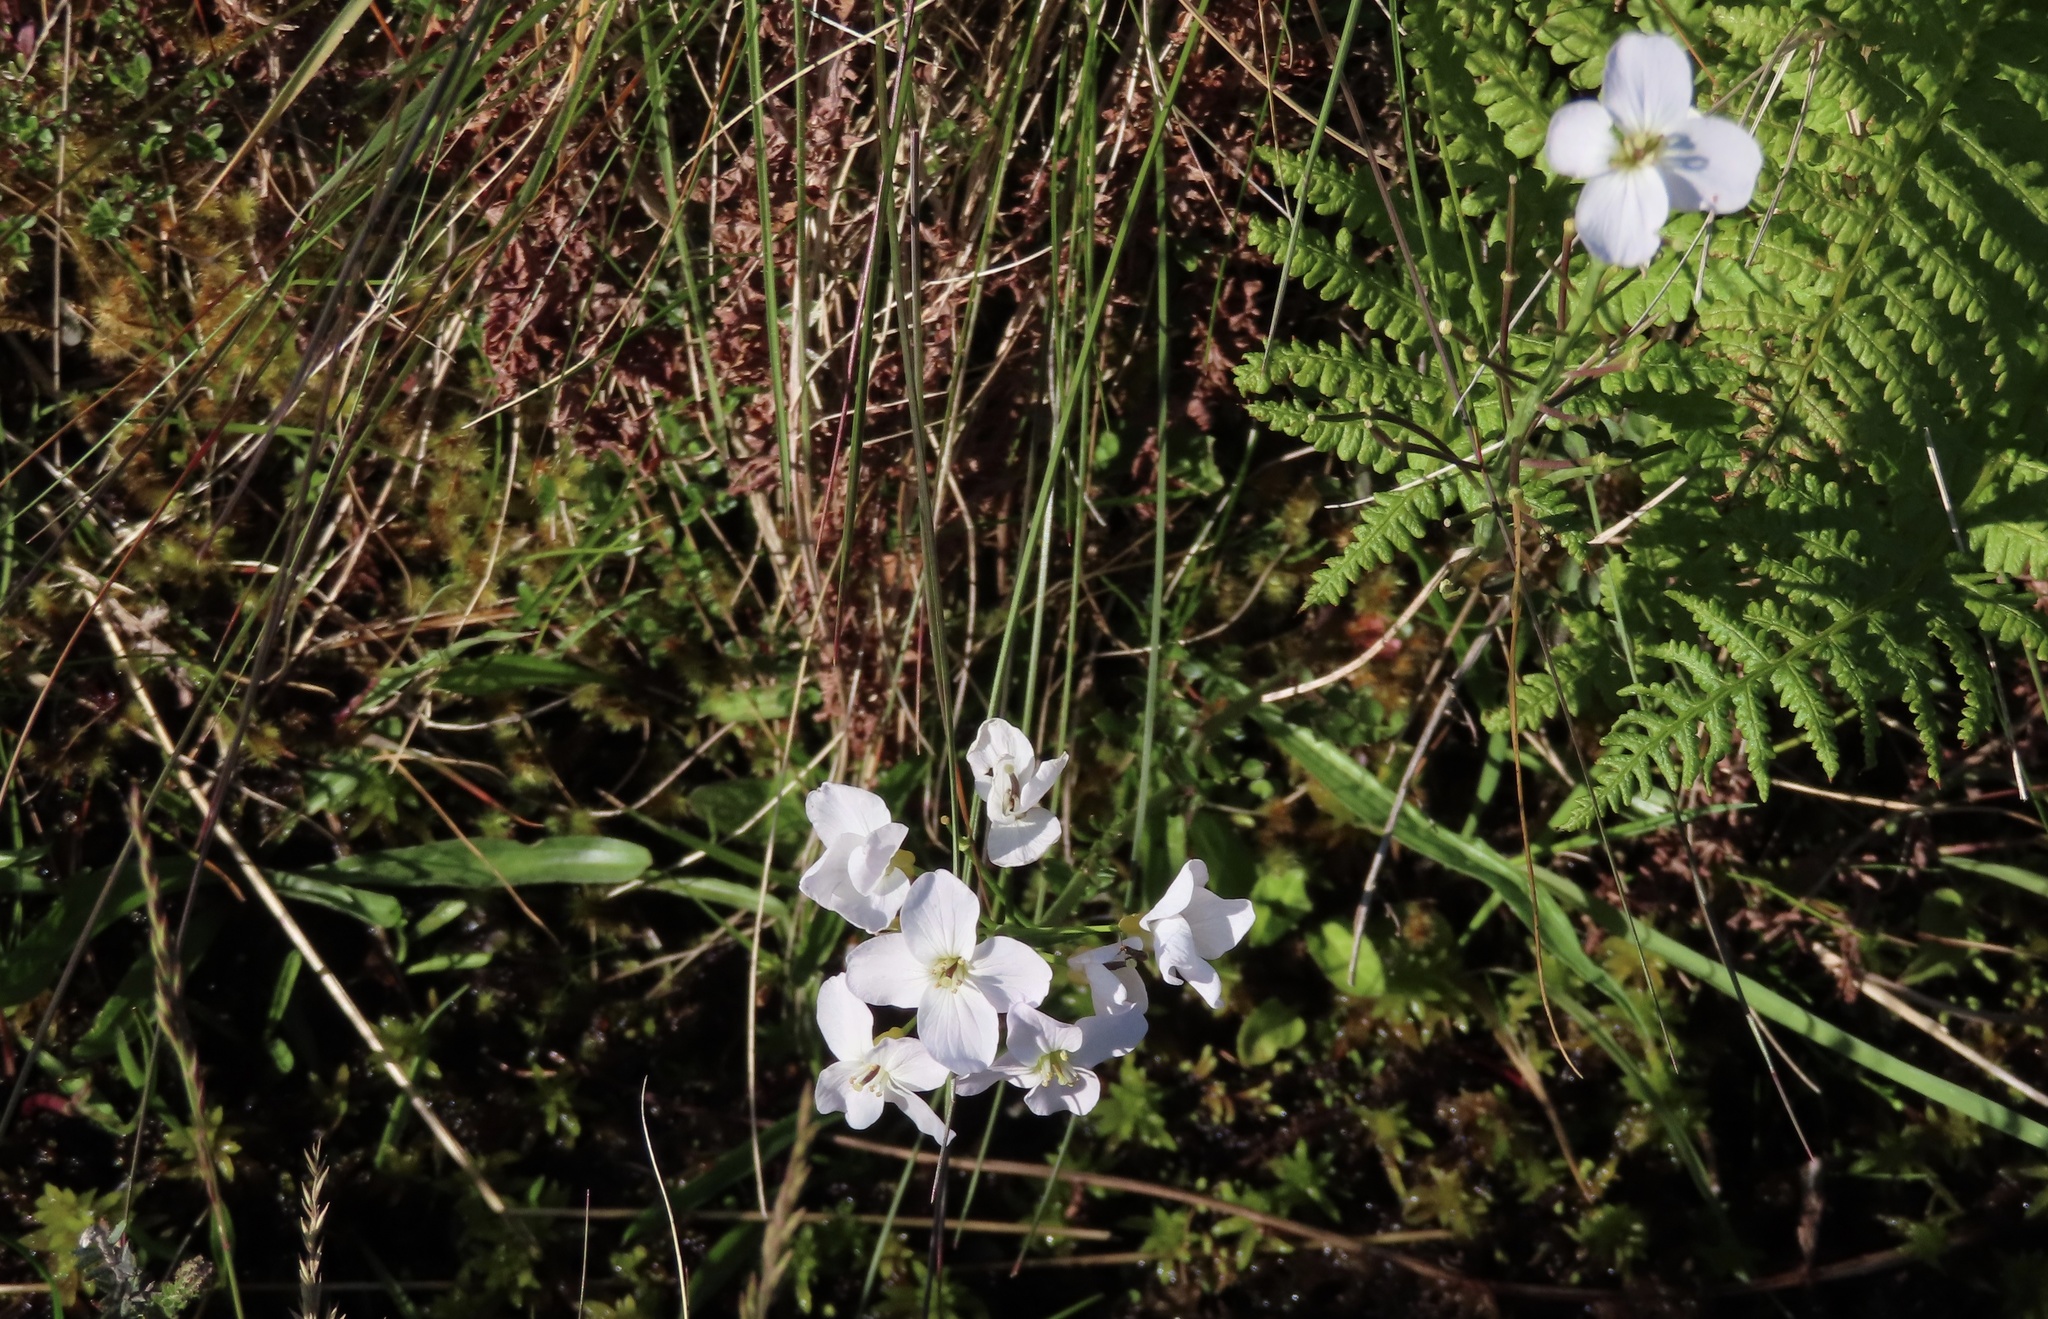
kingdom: Plantae
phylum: Tracheophyta
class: Magnoliopsida
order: Brassicales
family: Brassicaceae
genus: Cardamine
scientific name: Cardamine pratensis
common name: Cuckoo flower
